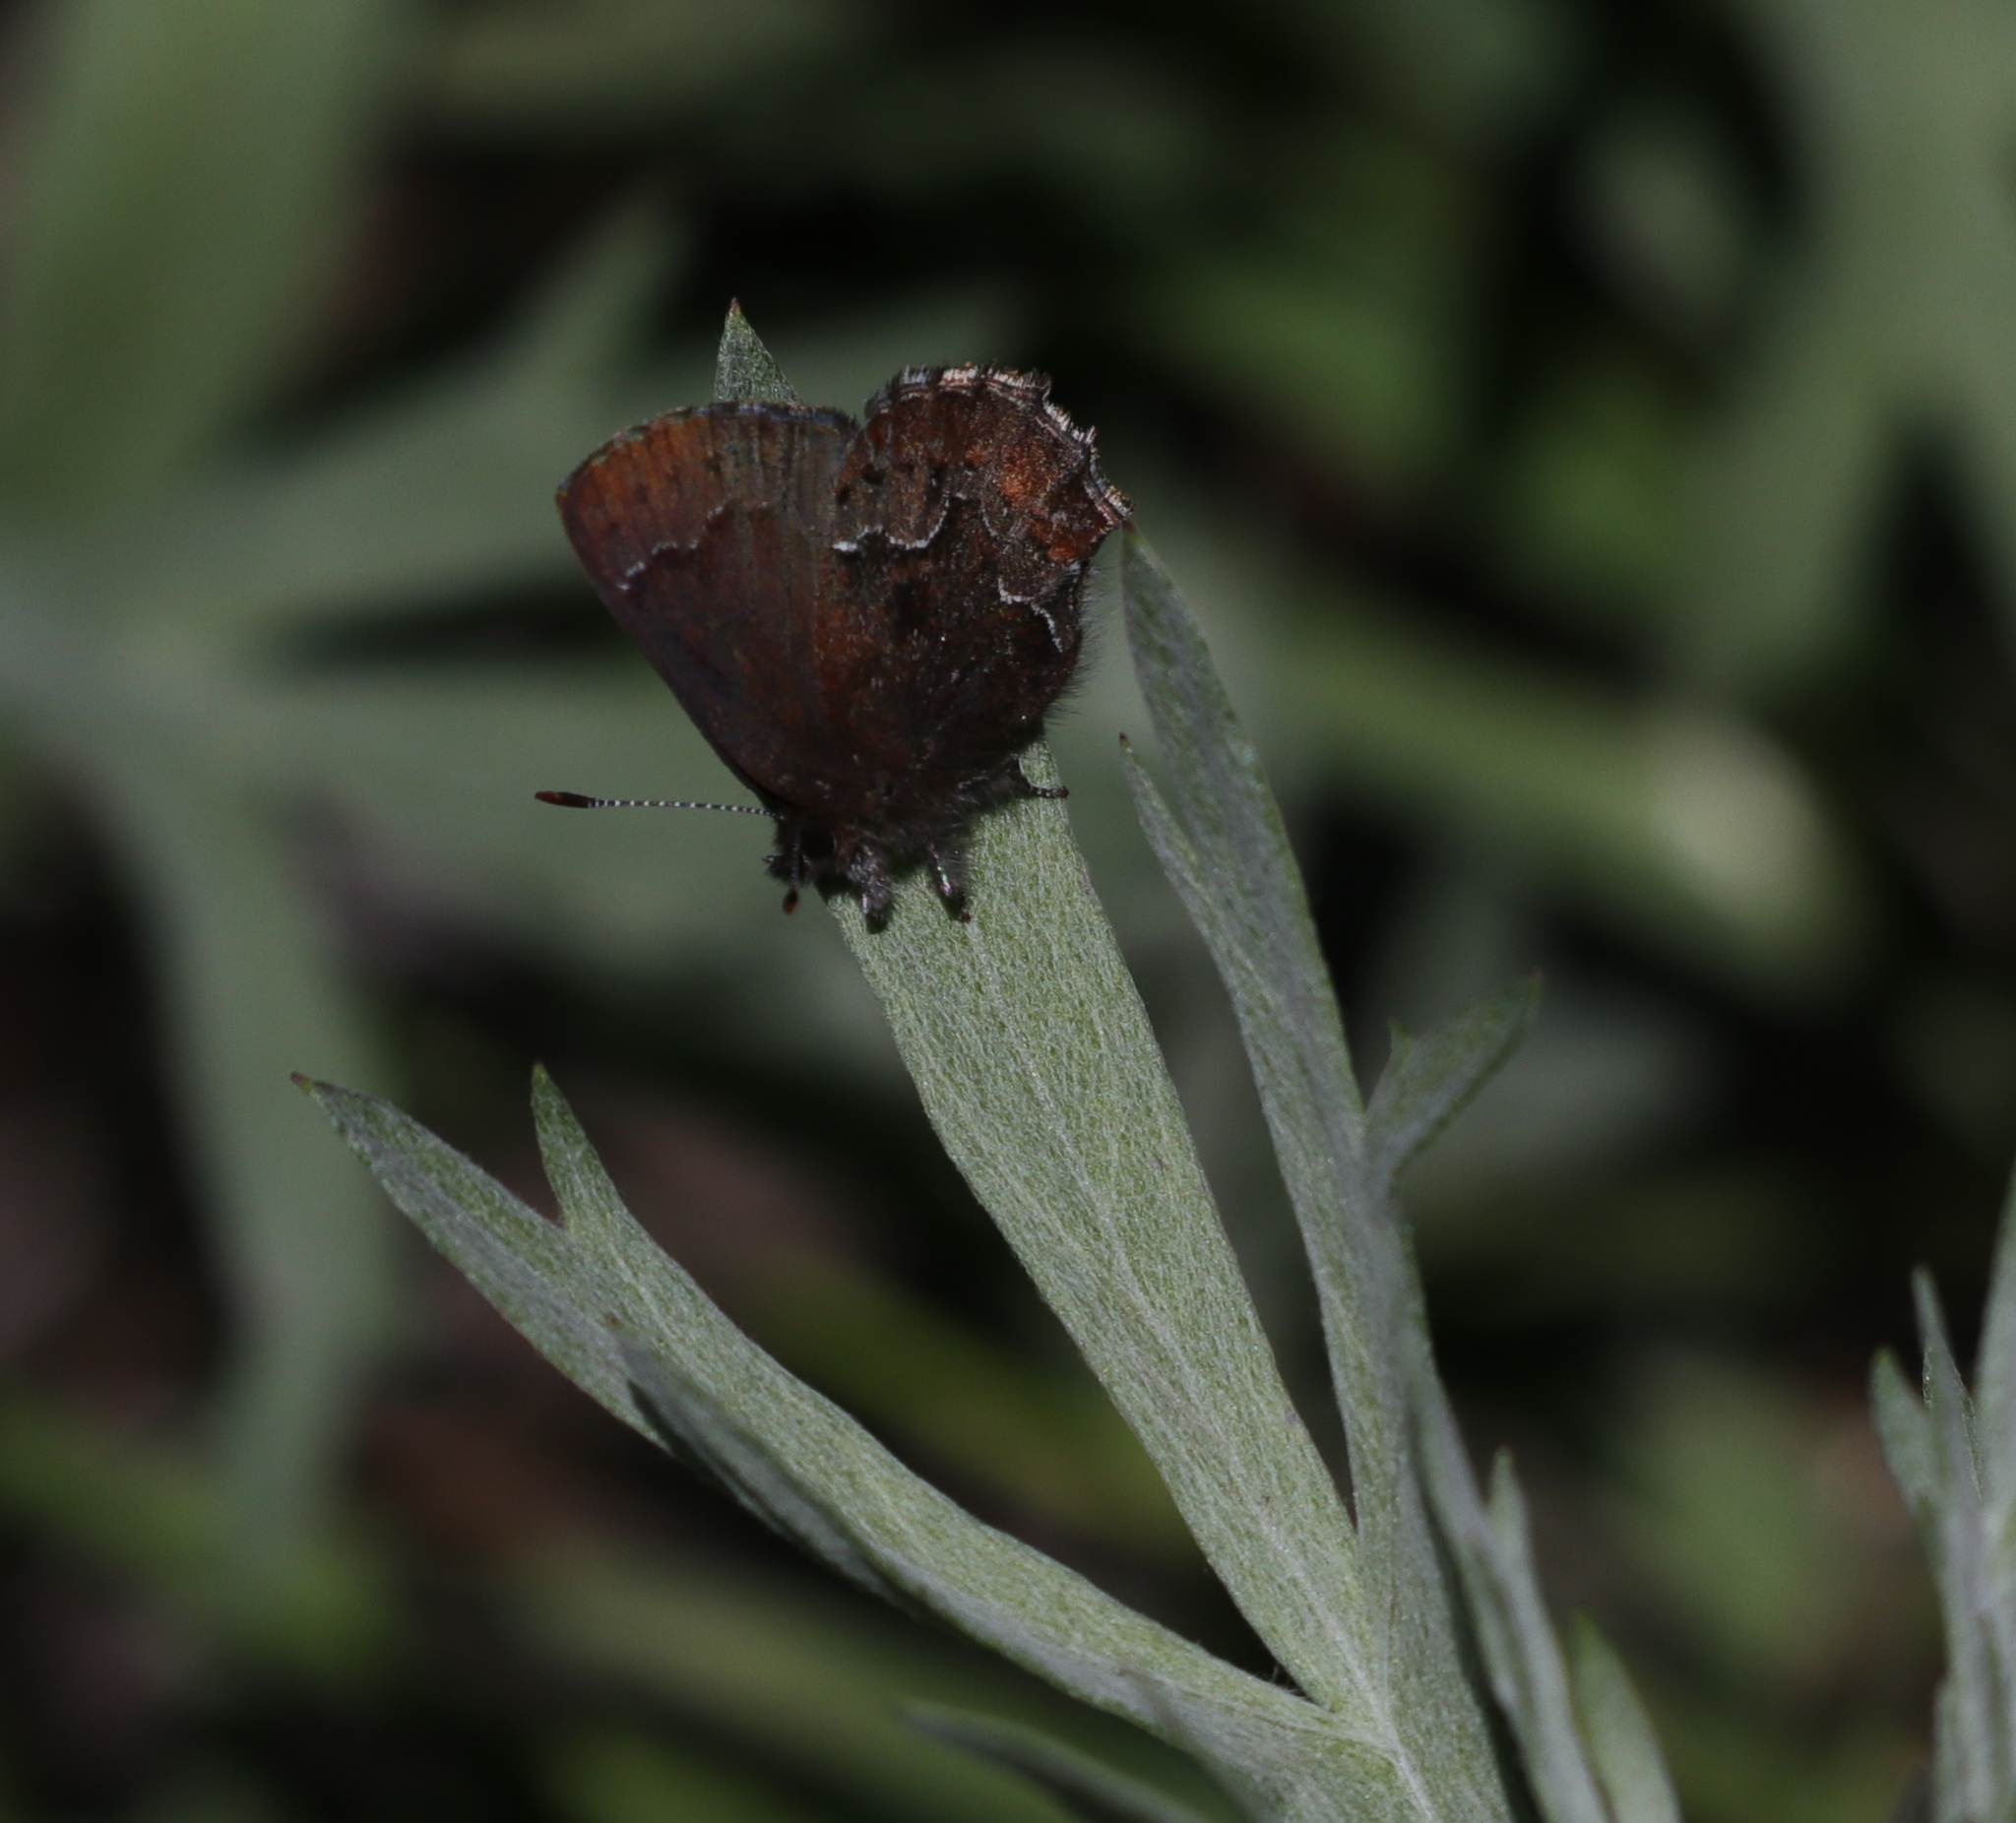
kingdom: Animalia
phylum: Arthropoda
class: Insecta
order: Lepidoptera
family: Lycaenidae
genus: Callophrys
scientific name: Callophrys mossii
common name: Moss' elfin
